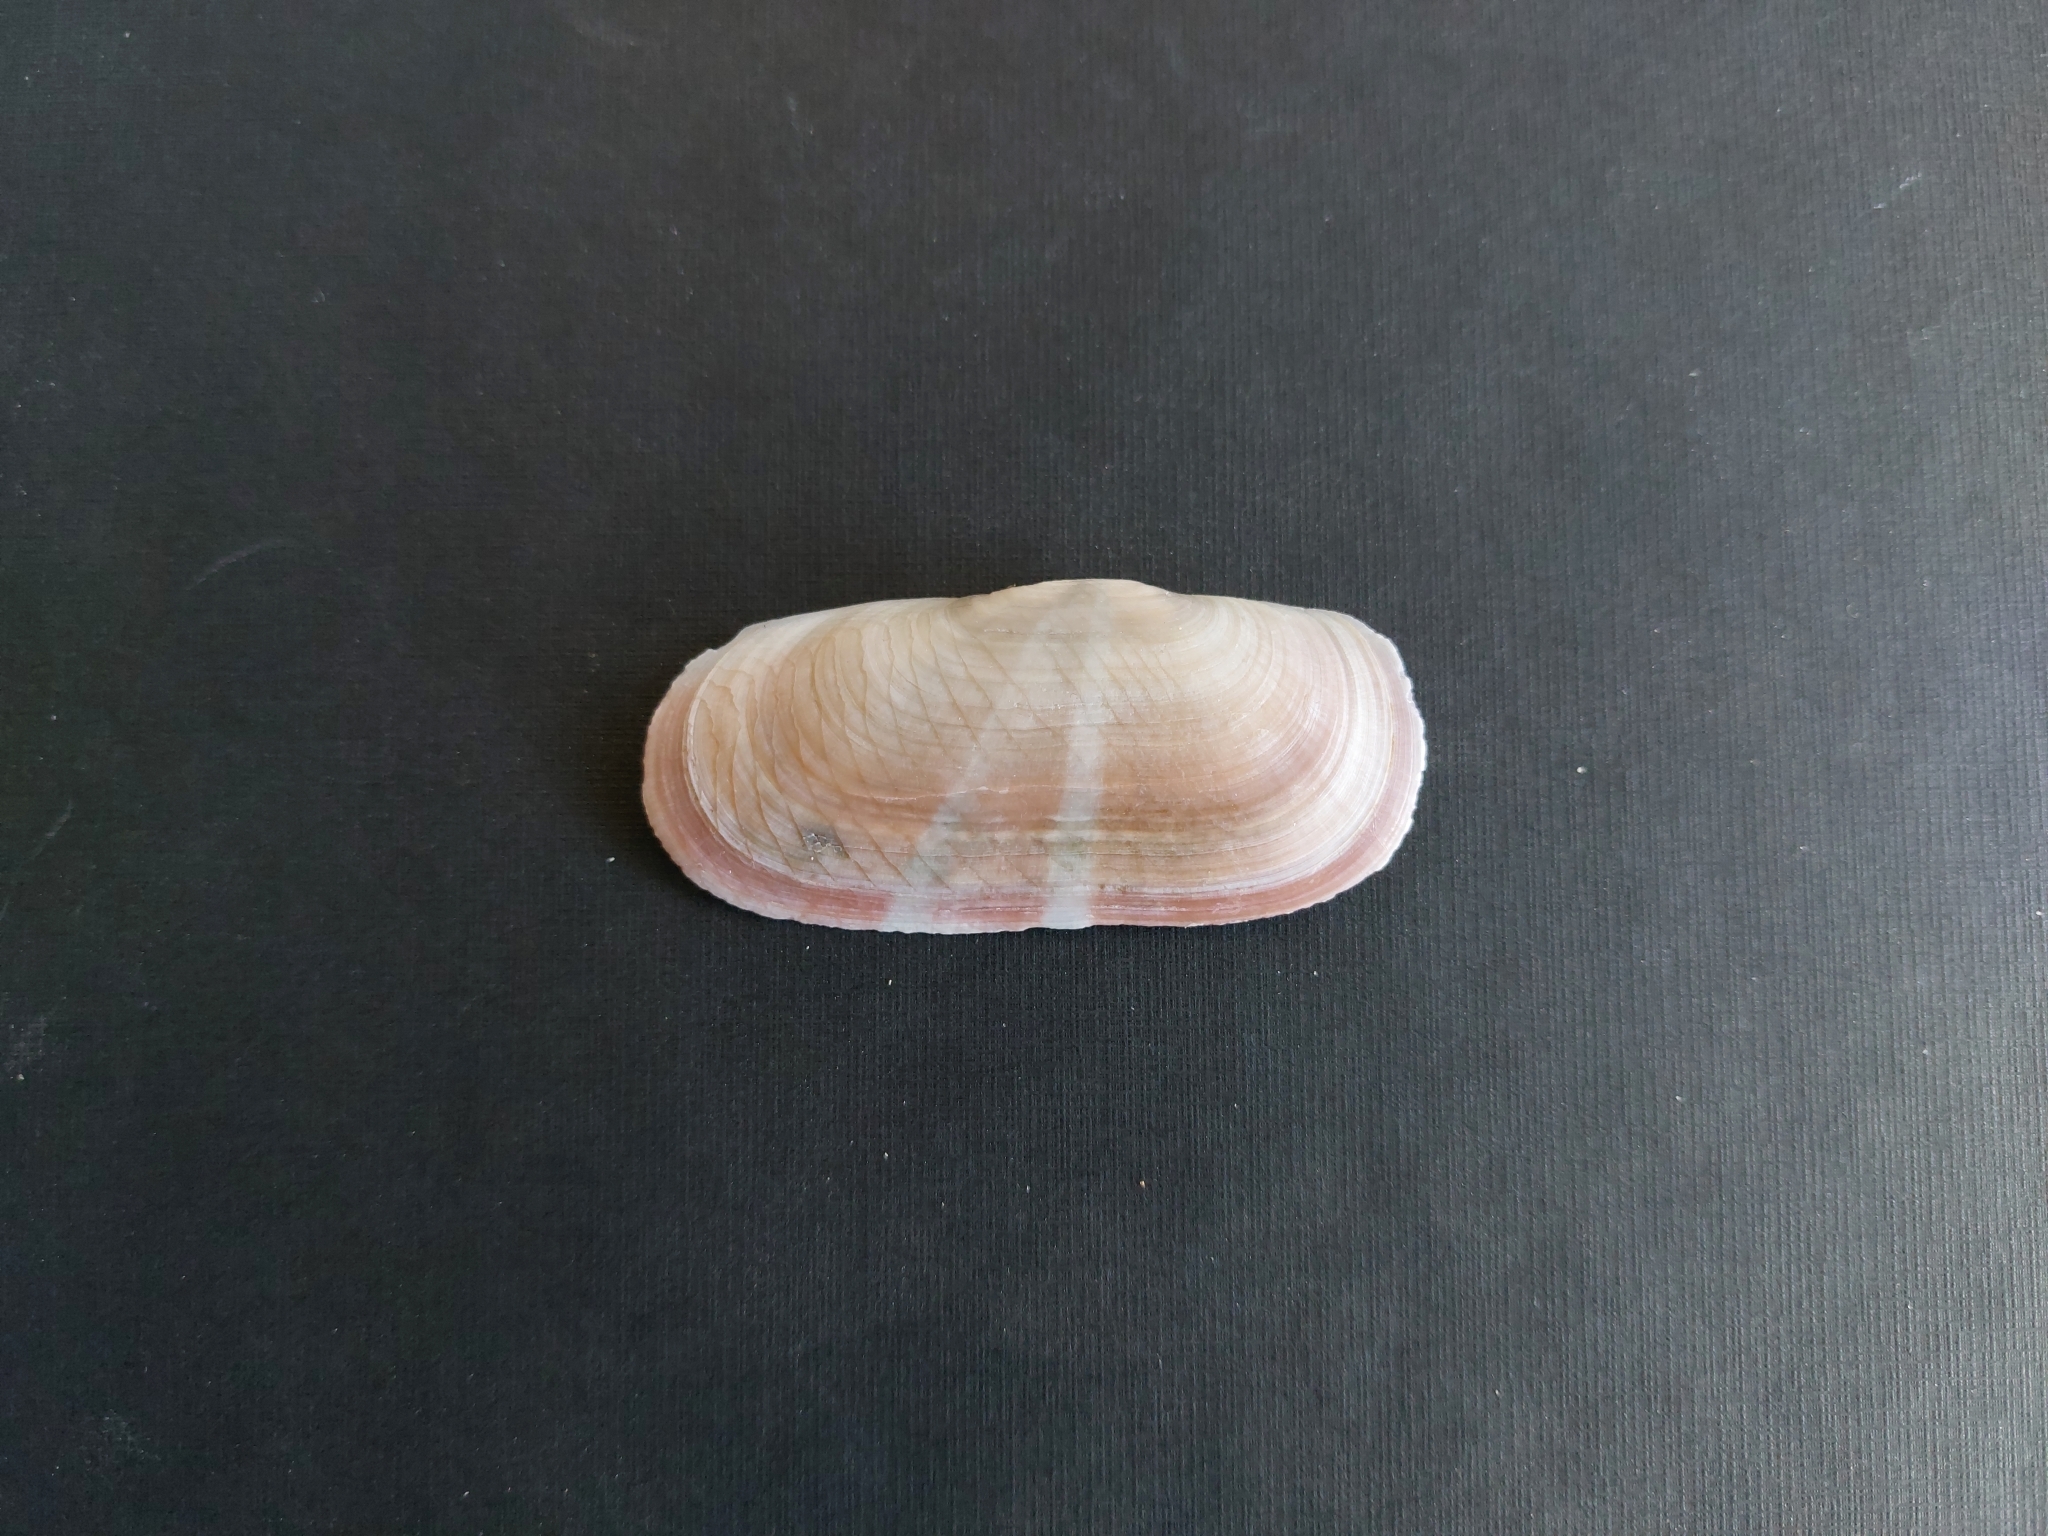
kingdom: Animalia
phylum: Mollusca
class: Bivalvia
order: Cardiida
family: Solecurtidae
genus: Solecurtus
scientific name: Solecurtus strigilatus
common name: Rosy razor clam
